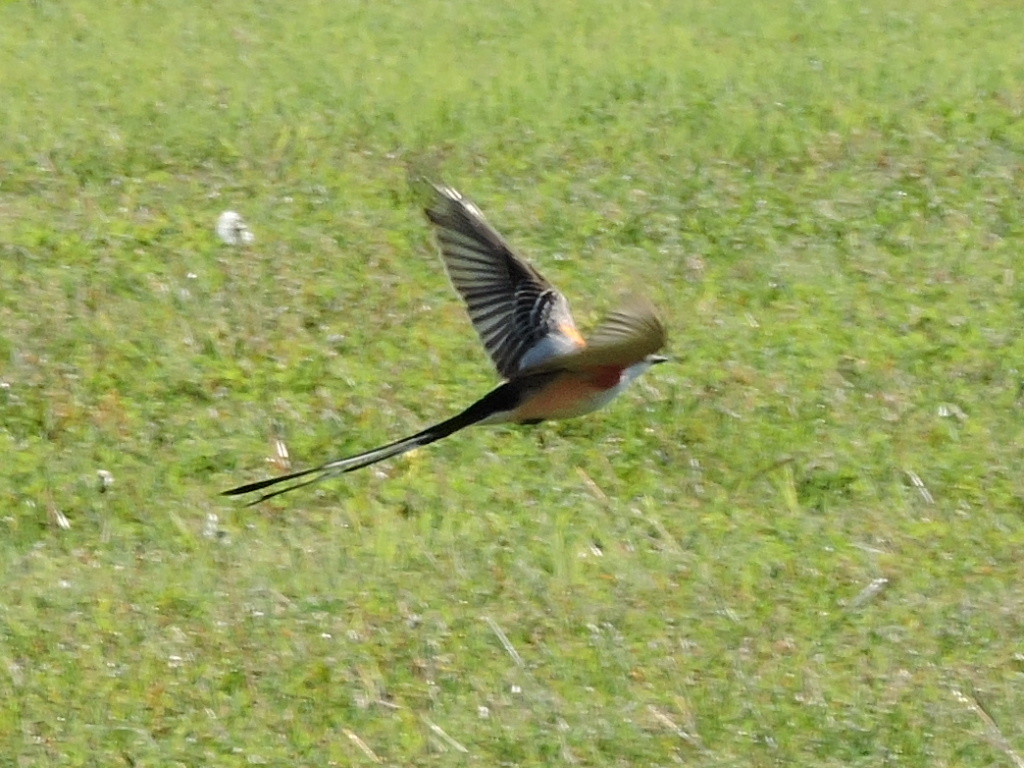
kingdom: Animalia
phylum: Chordata
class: Aves
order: Passeriformes
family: Tyrannidae
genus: Tyrannus
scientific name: Tyrannus forficatus
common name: Scissor-tailed flycatcher
